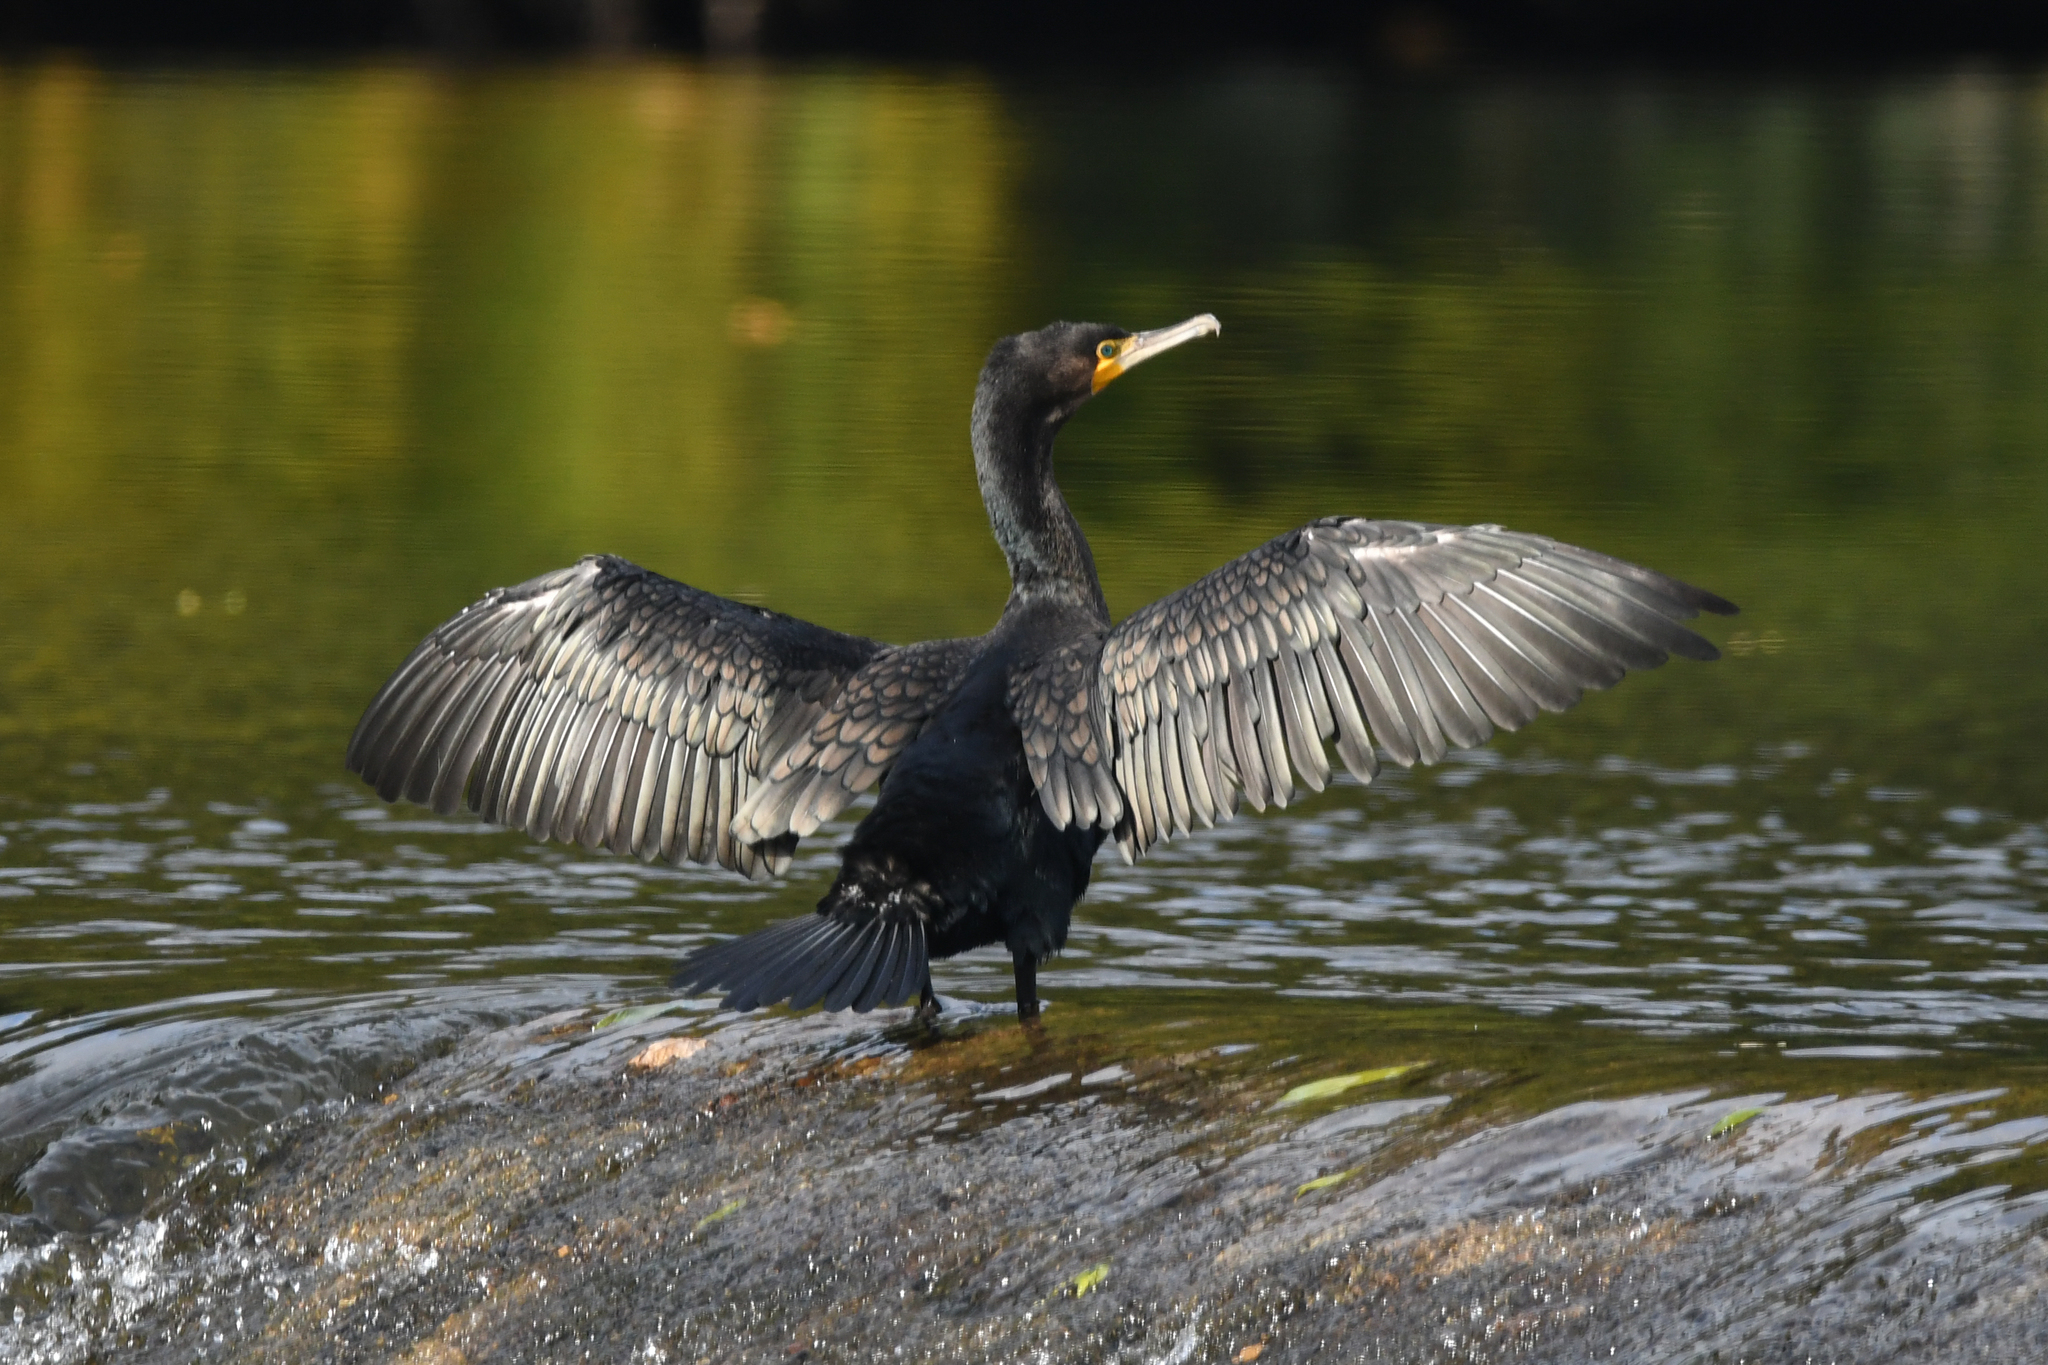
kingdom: Animalia
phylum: Chordata
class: Aves
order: Suliformes
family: Phalacrocoracidae
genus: Phalacrocorax
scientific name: Phalacrocorax carbo
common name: Great cormorant
